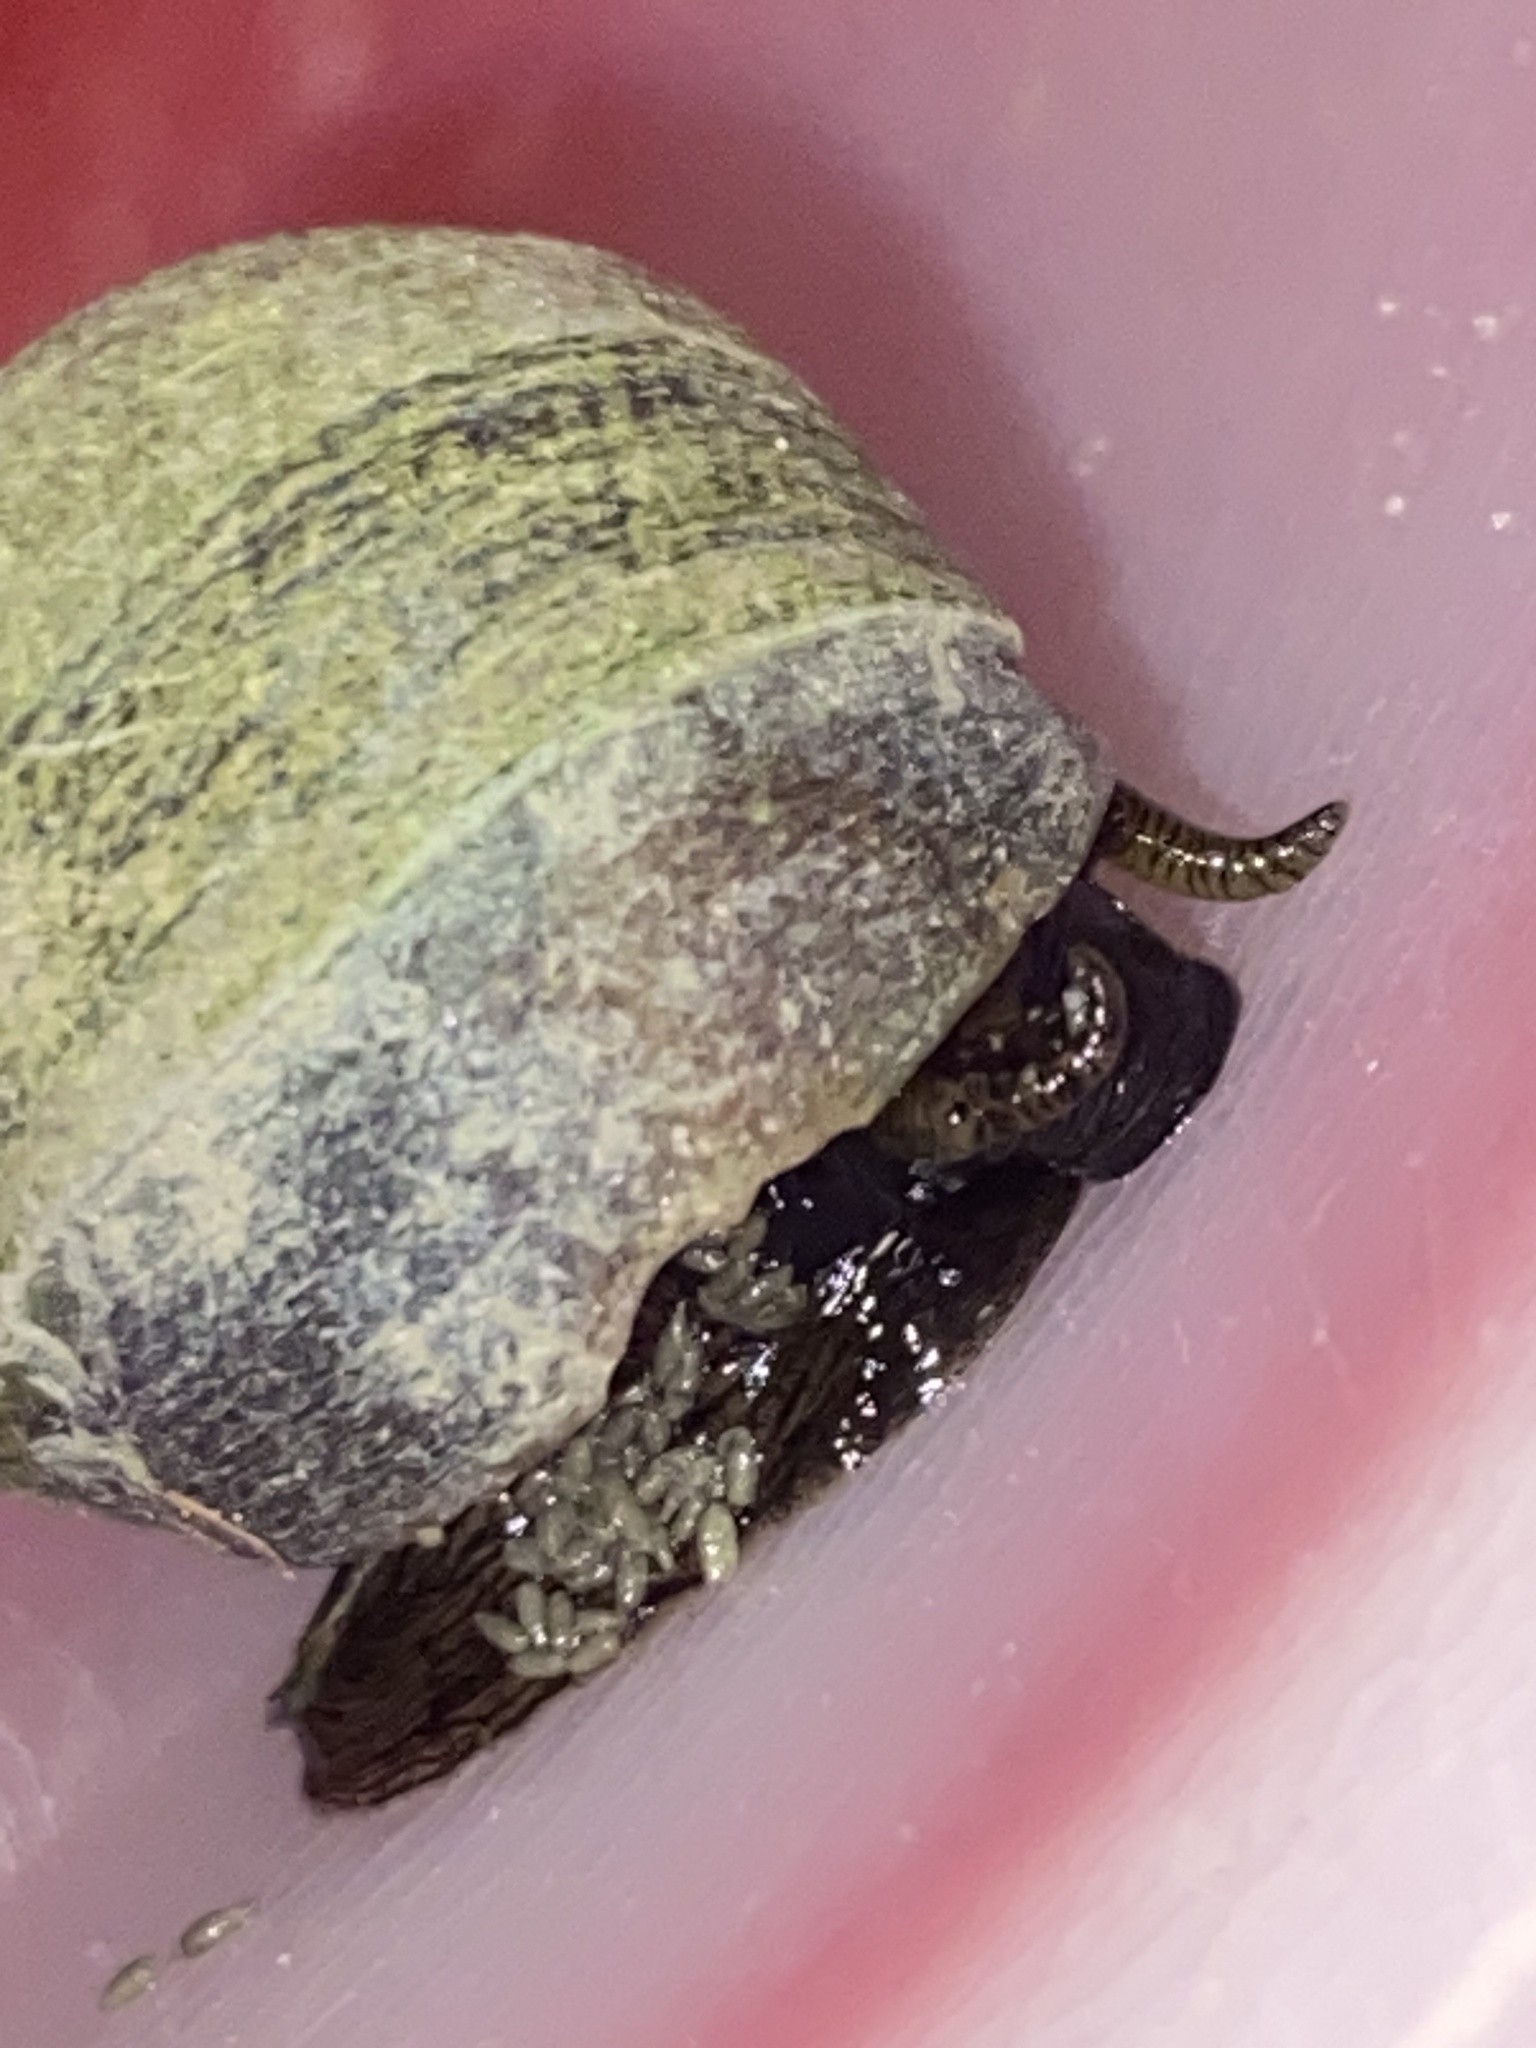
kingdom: Animalia
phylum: Mollusca
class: Gastropoda
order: Littorinimorpha
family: Littorinidae
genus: Littorina
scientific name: Littorina littorea
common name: Common periwinkle
